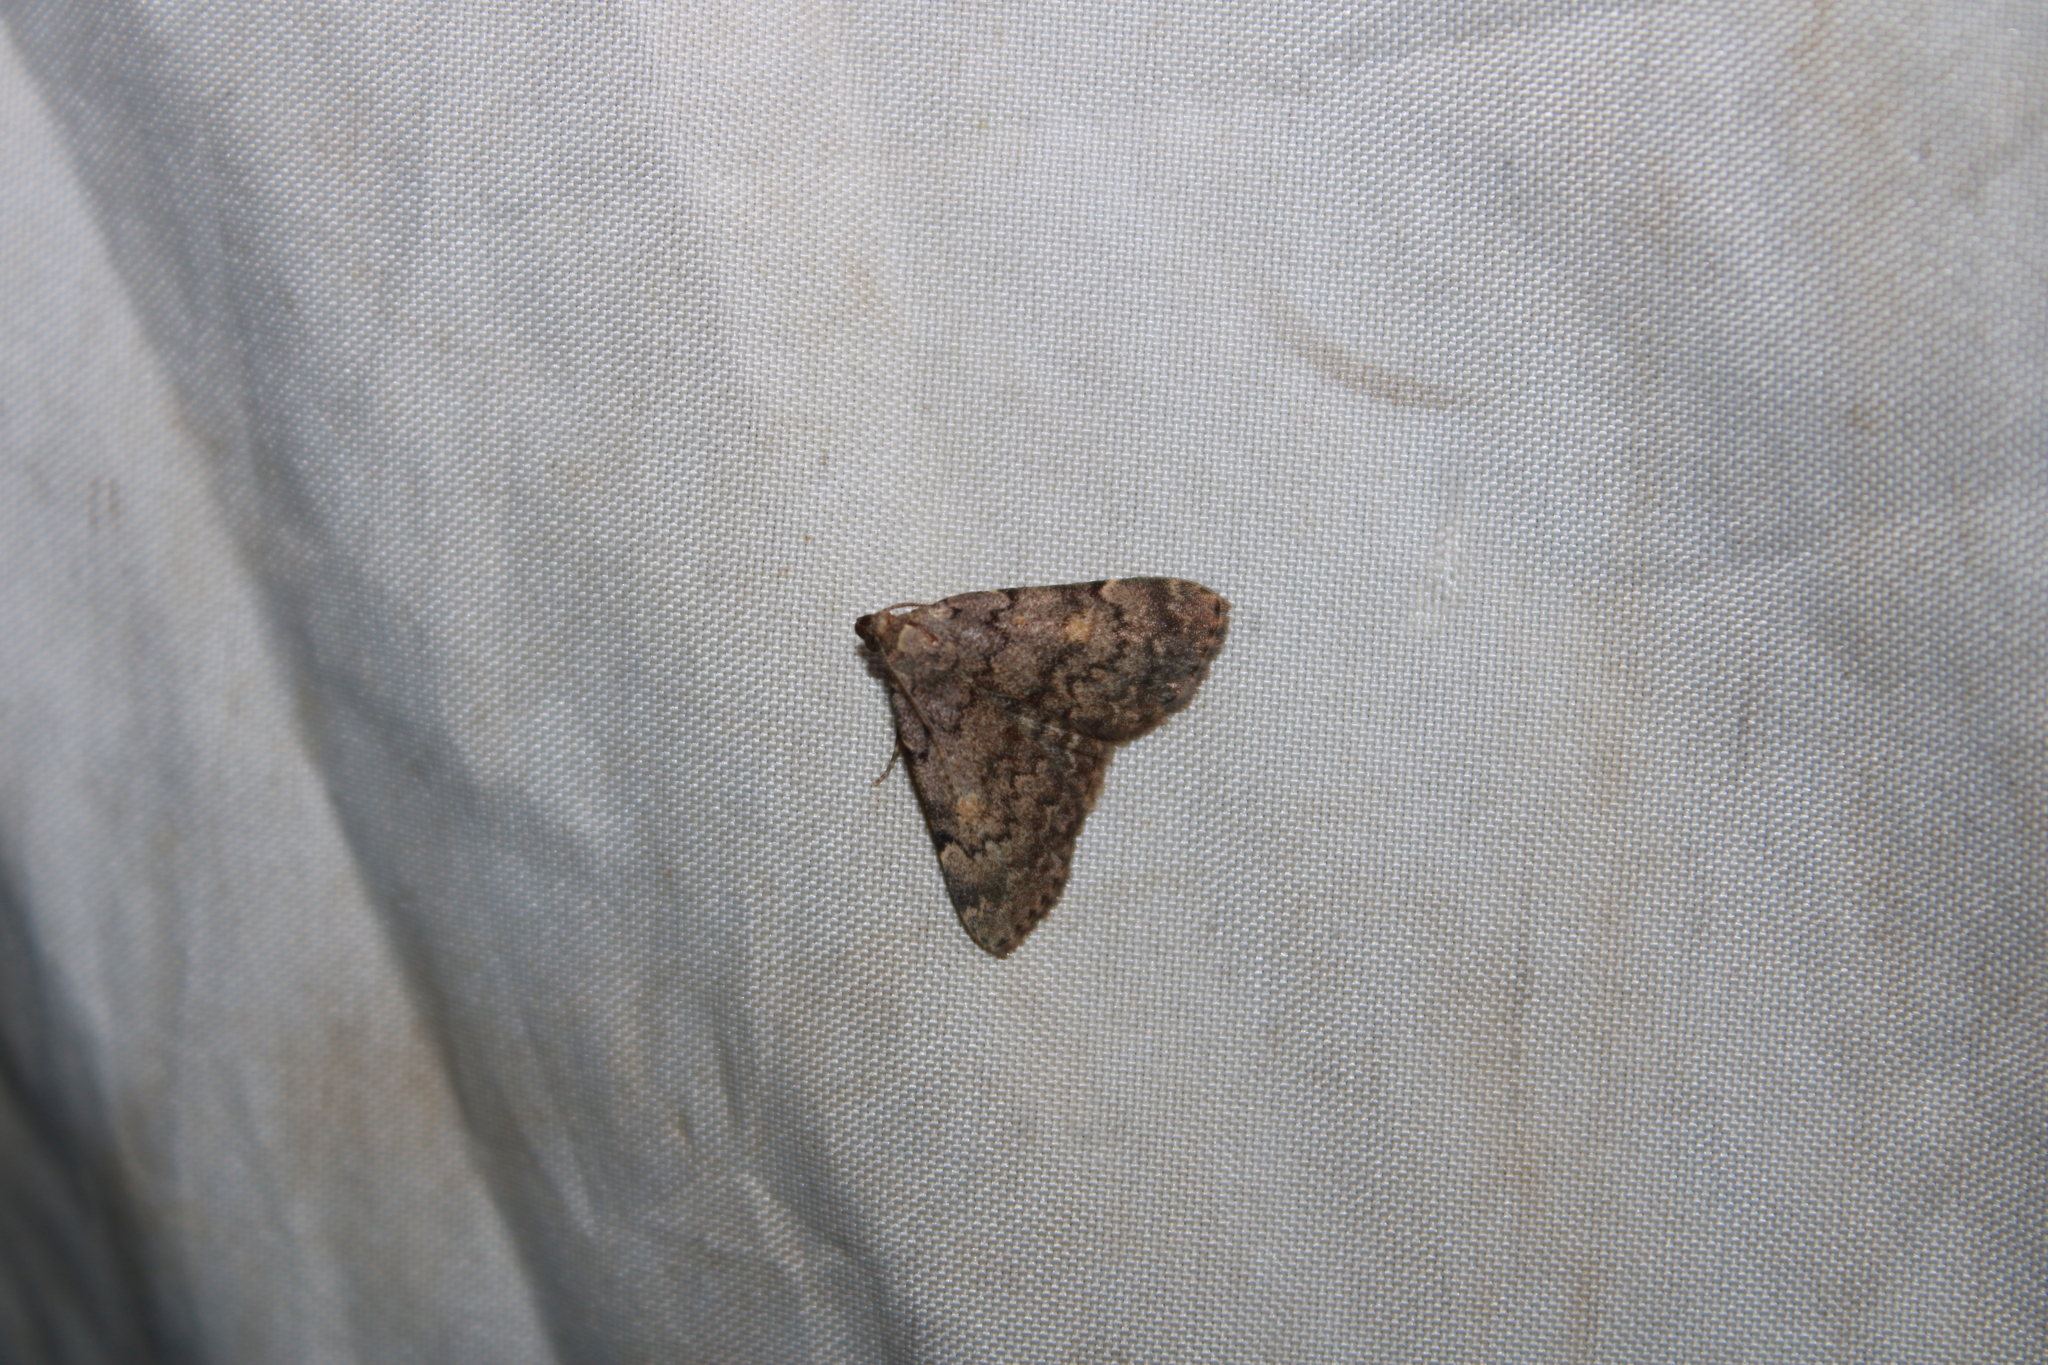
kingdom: Animalia
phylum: Arthropoda
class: Insecta
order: Lepidoptera
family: Erebidae
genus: Idia
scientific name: Idia aemula
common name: Common idia moth
